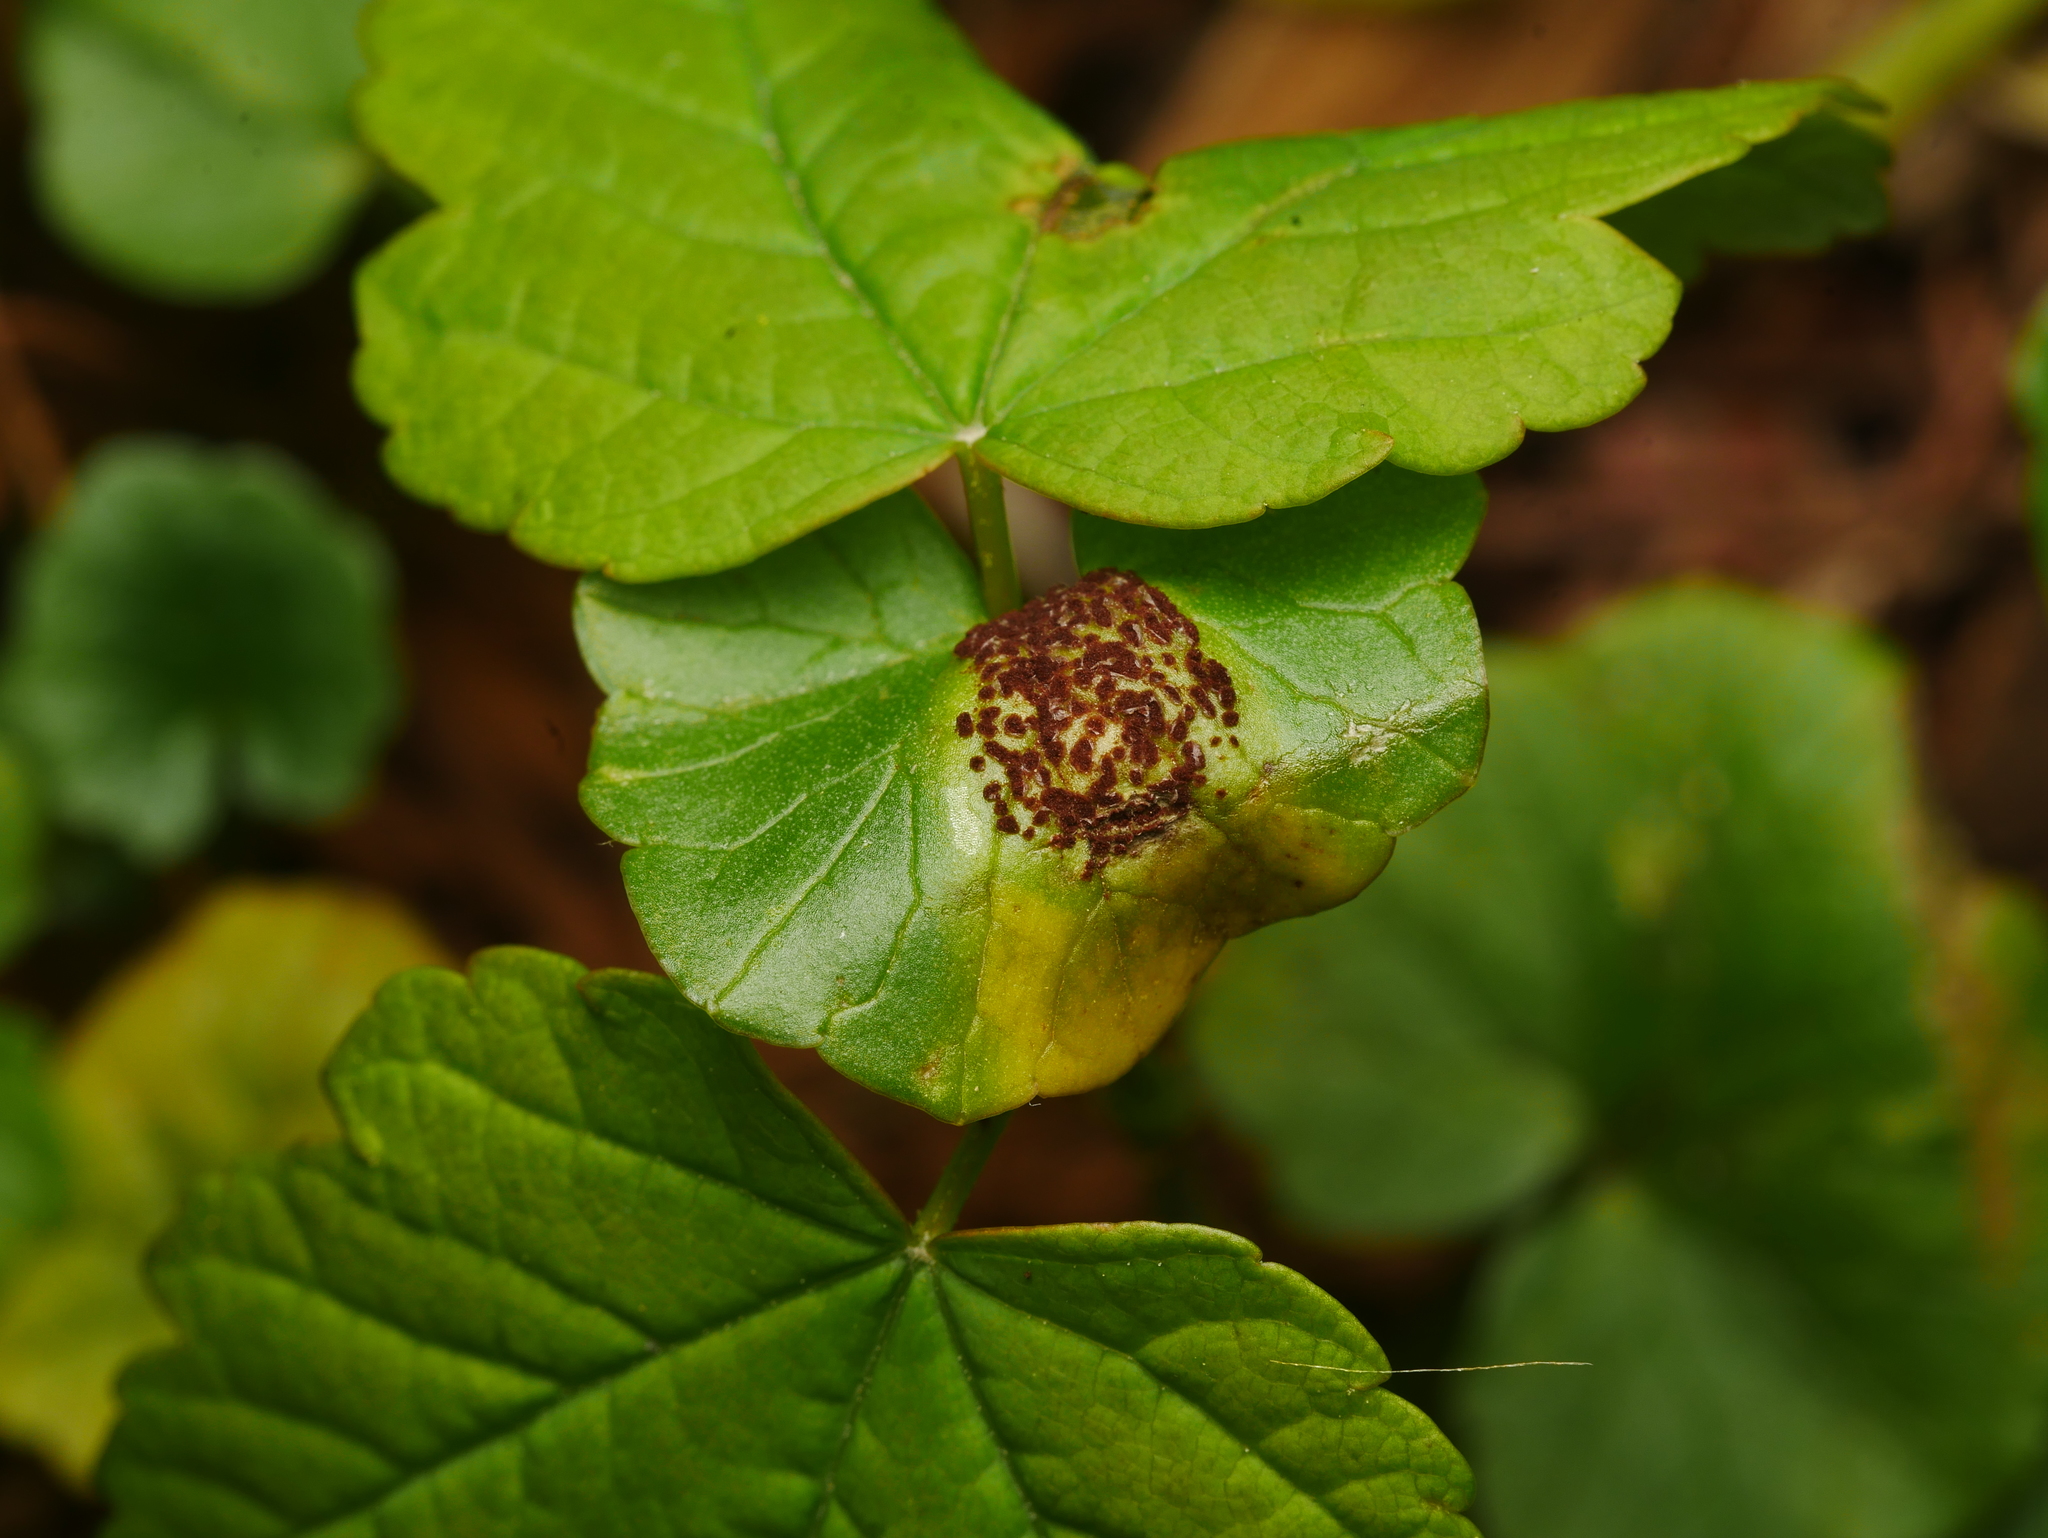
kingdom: Fungi
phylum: Basidiomycota
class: Pucciniomycetes
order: Pucciniales
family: Pucciniaceae
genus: Uromyces
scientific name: Uromyces ficariae
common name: Bitter chocolate rust
